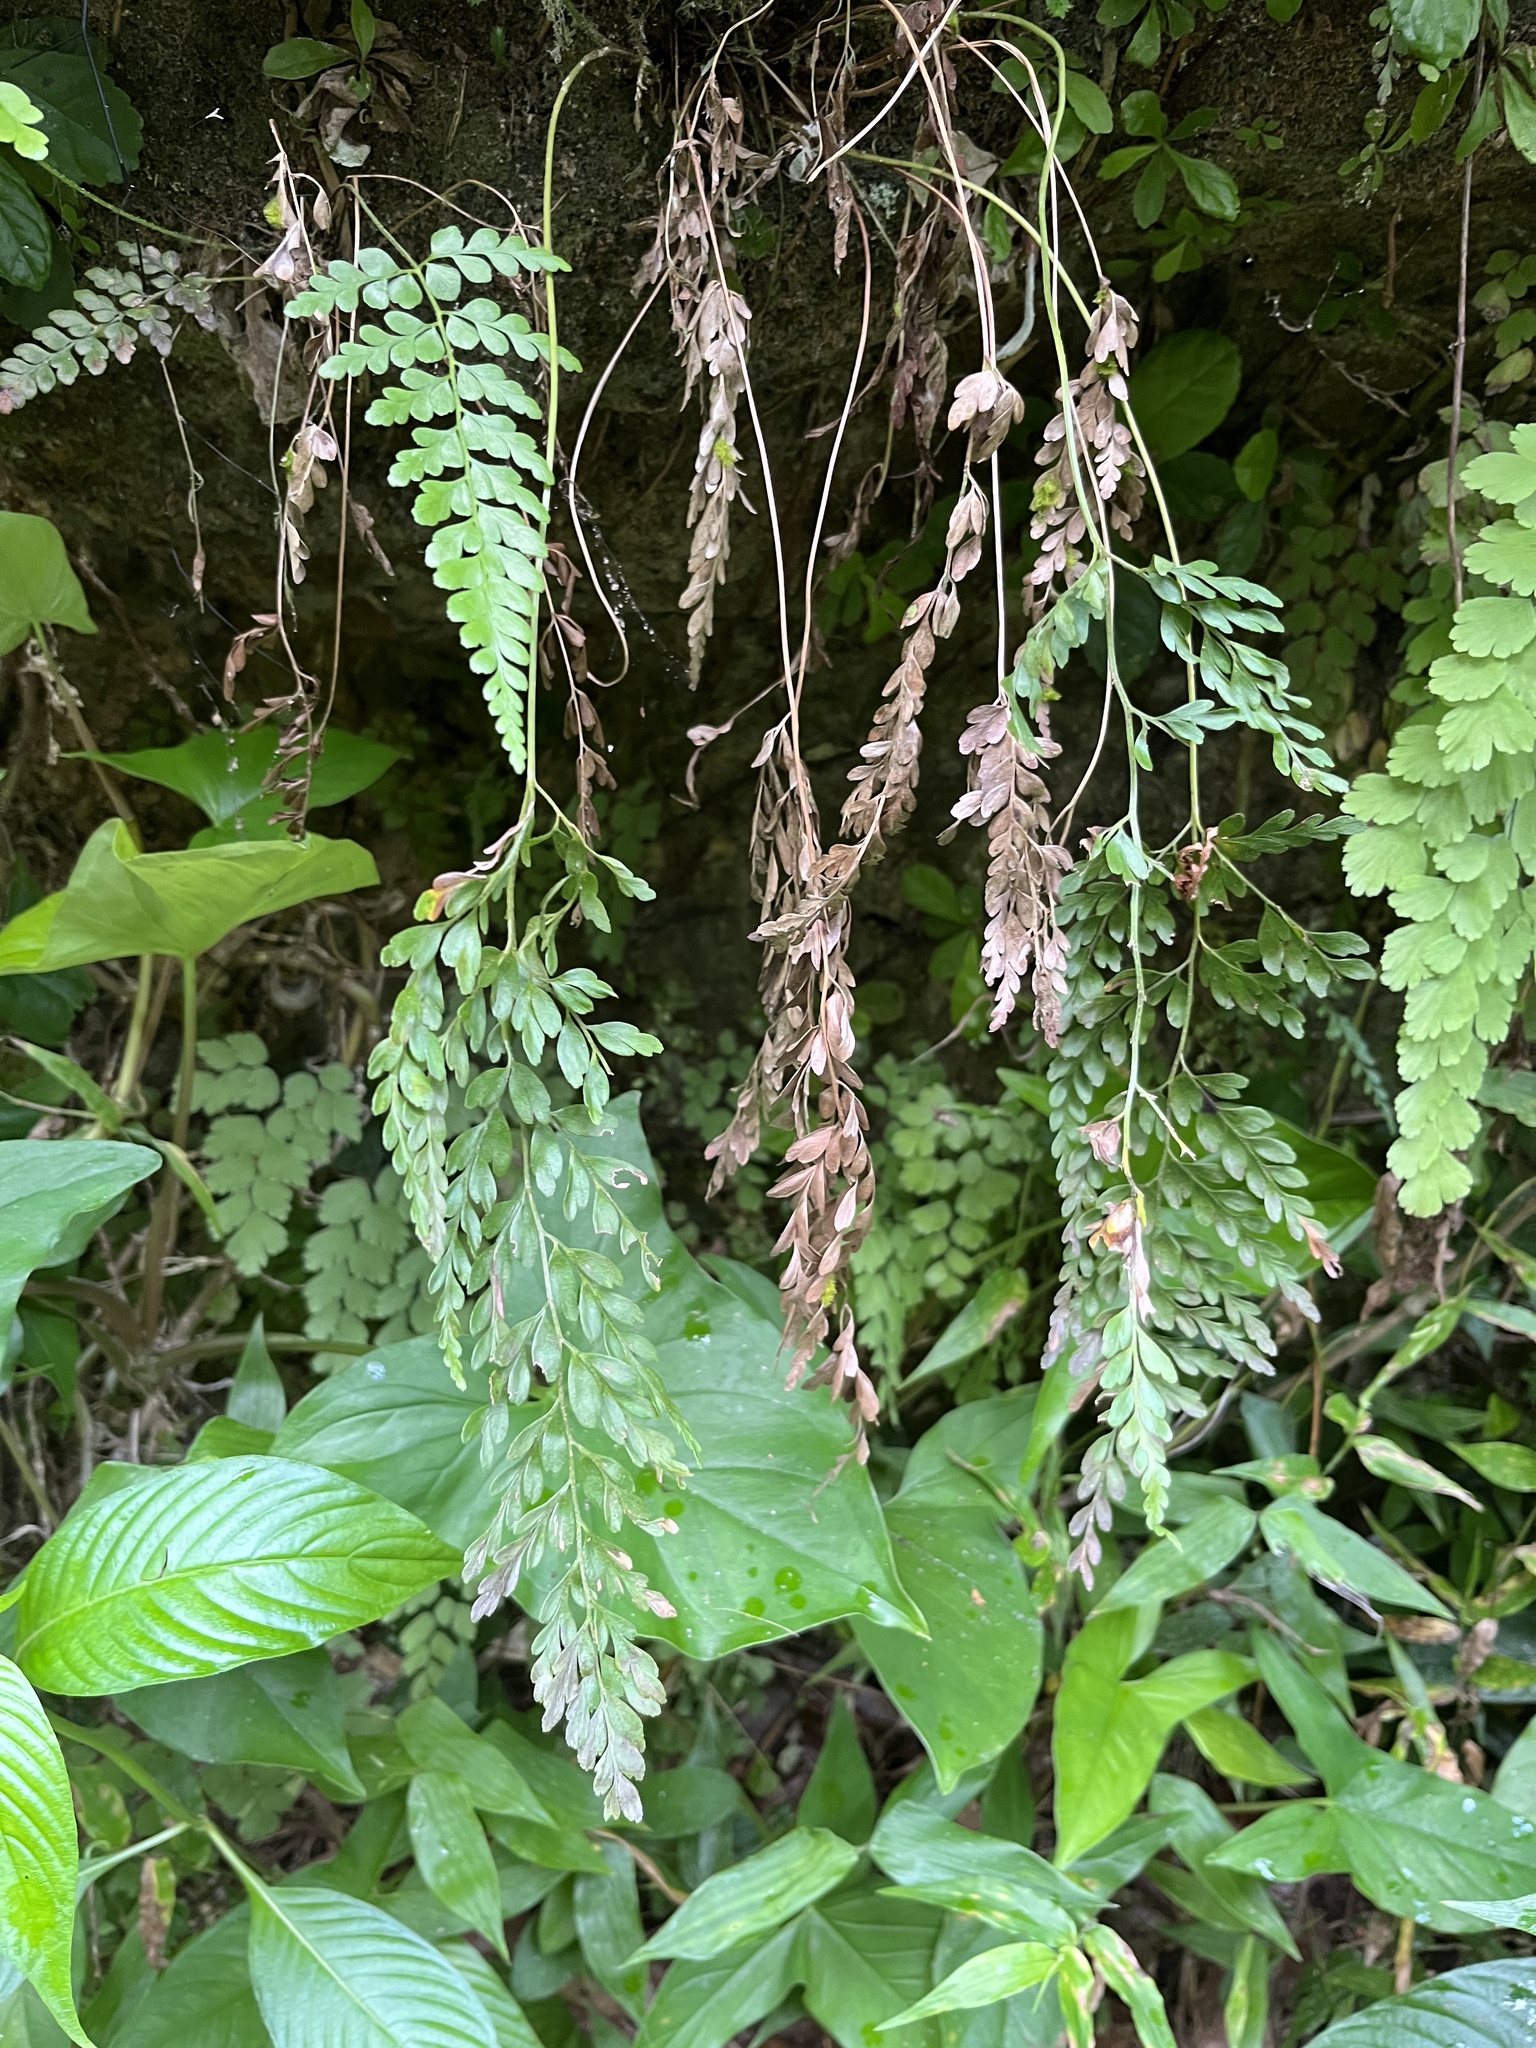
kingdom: Plantae
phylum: Tracheophyta
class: Polypodiopsida
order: Schizaeales
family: Anemiaceae
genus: Anemia
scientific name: Anemia adiantifolia
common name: Pine fern
